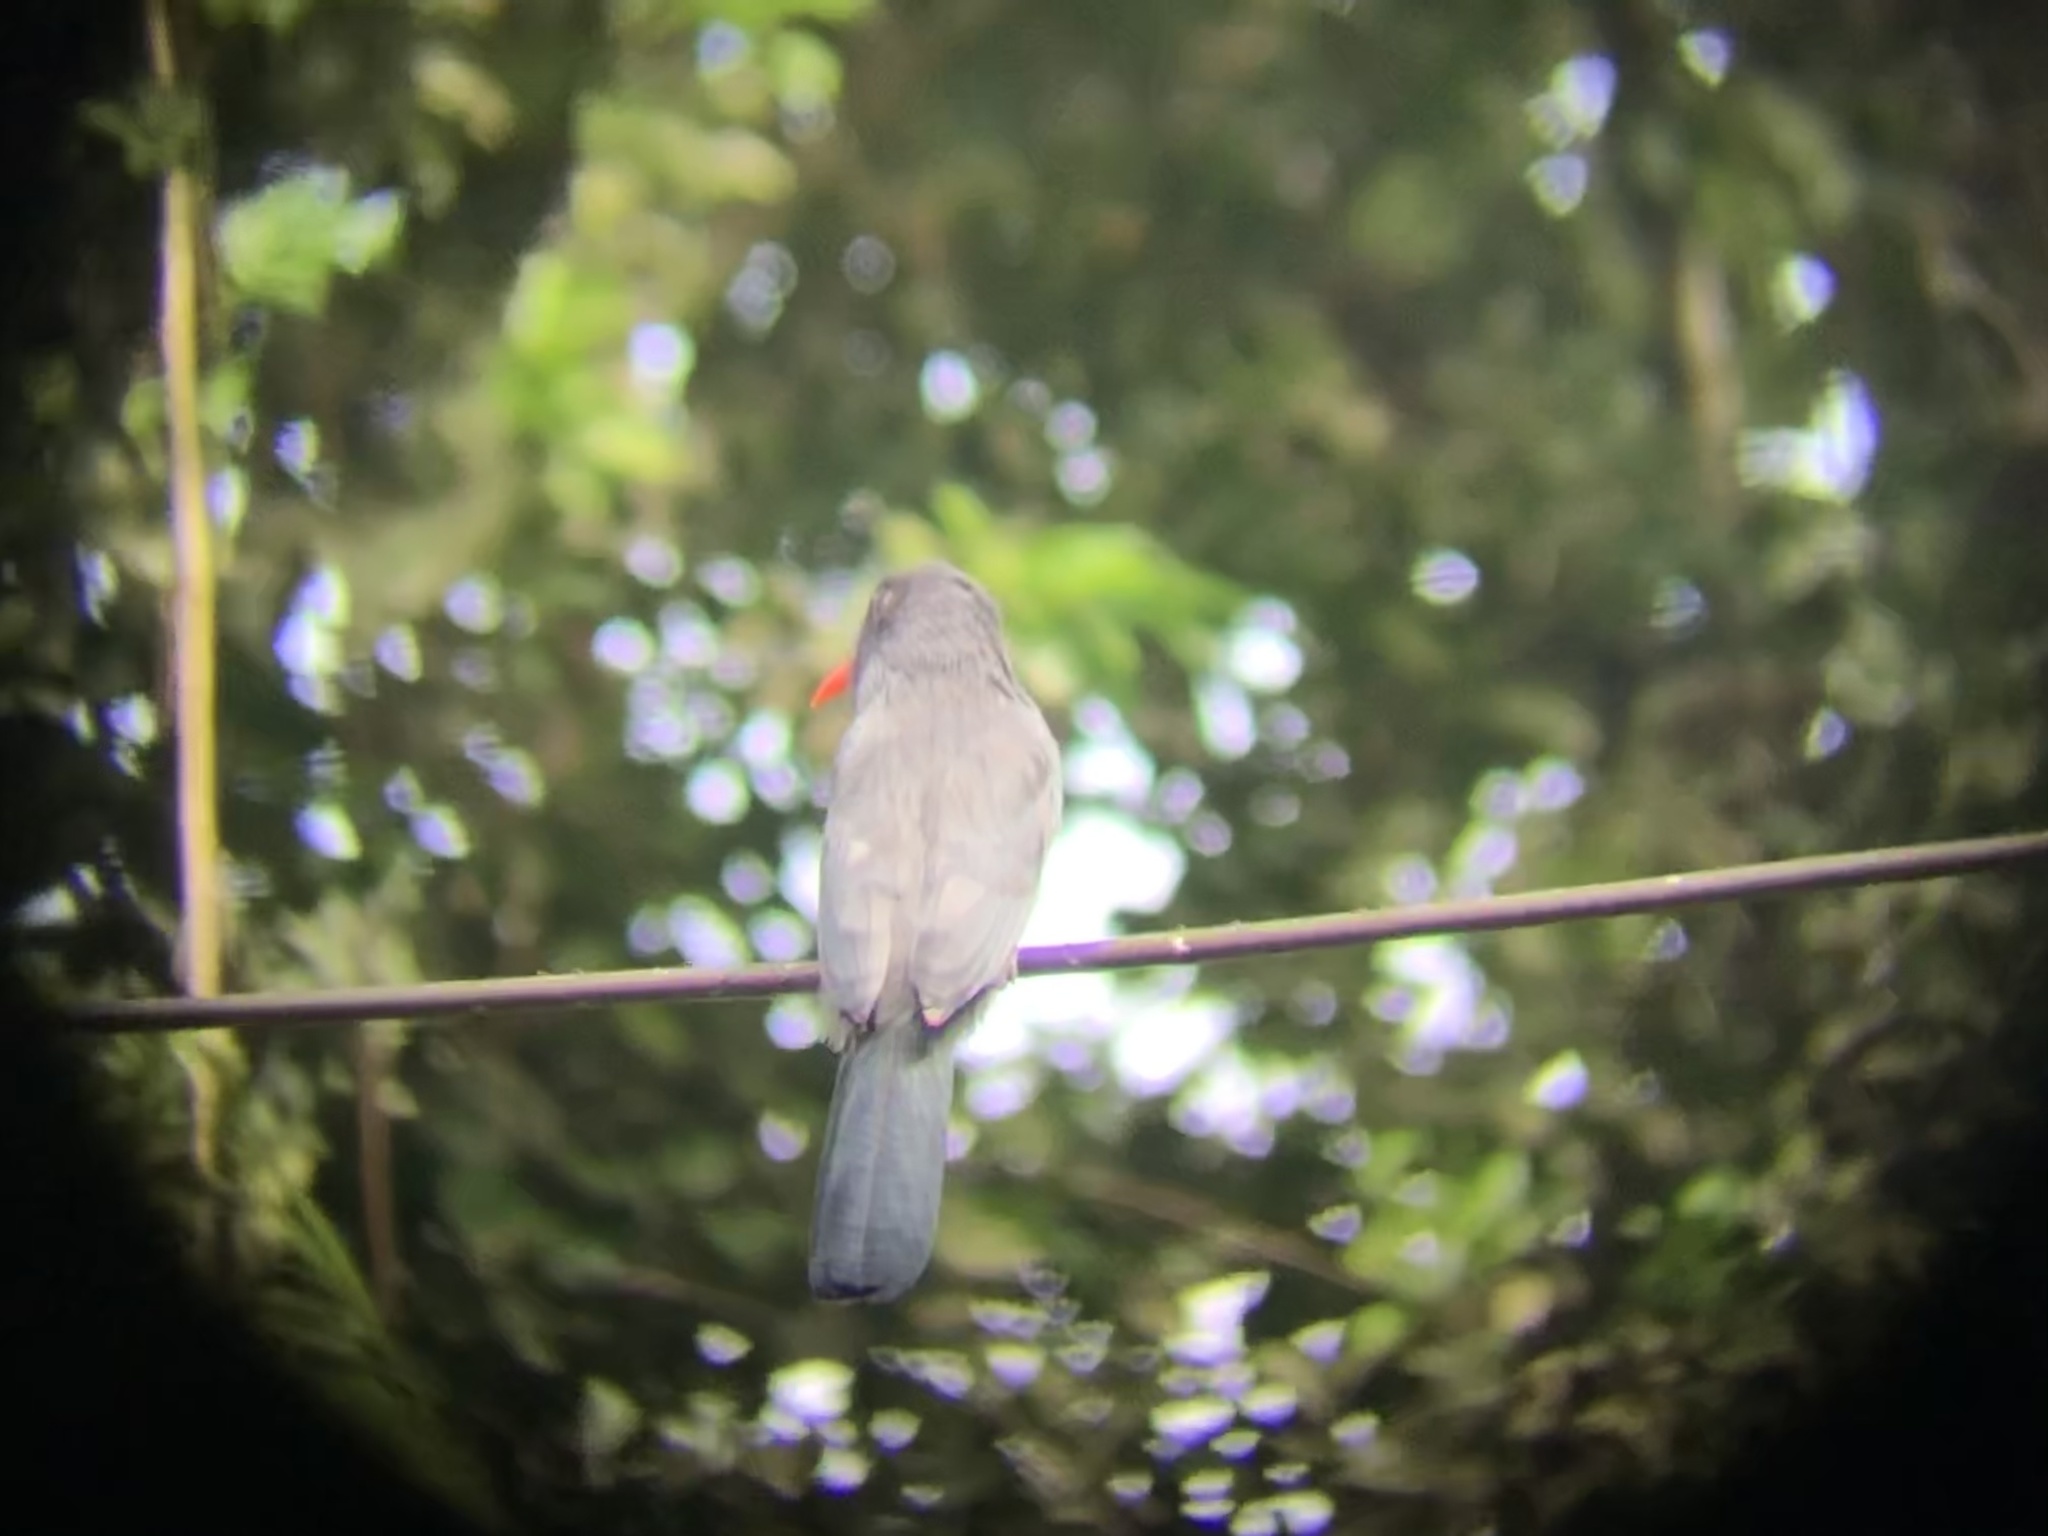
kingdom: Animalia
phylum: Chordata
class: Aves
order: Piciformes
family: Bucconidae
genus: Monasa
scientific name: Monasa nigrifrons
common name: Black-fronted nunbird
